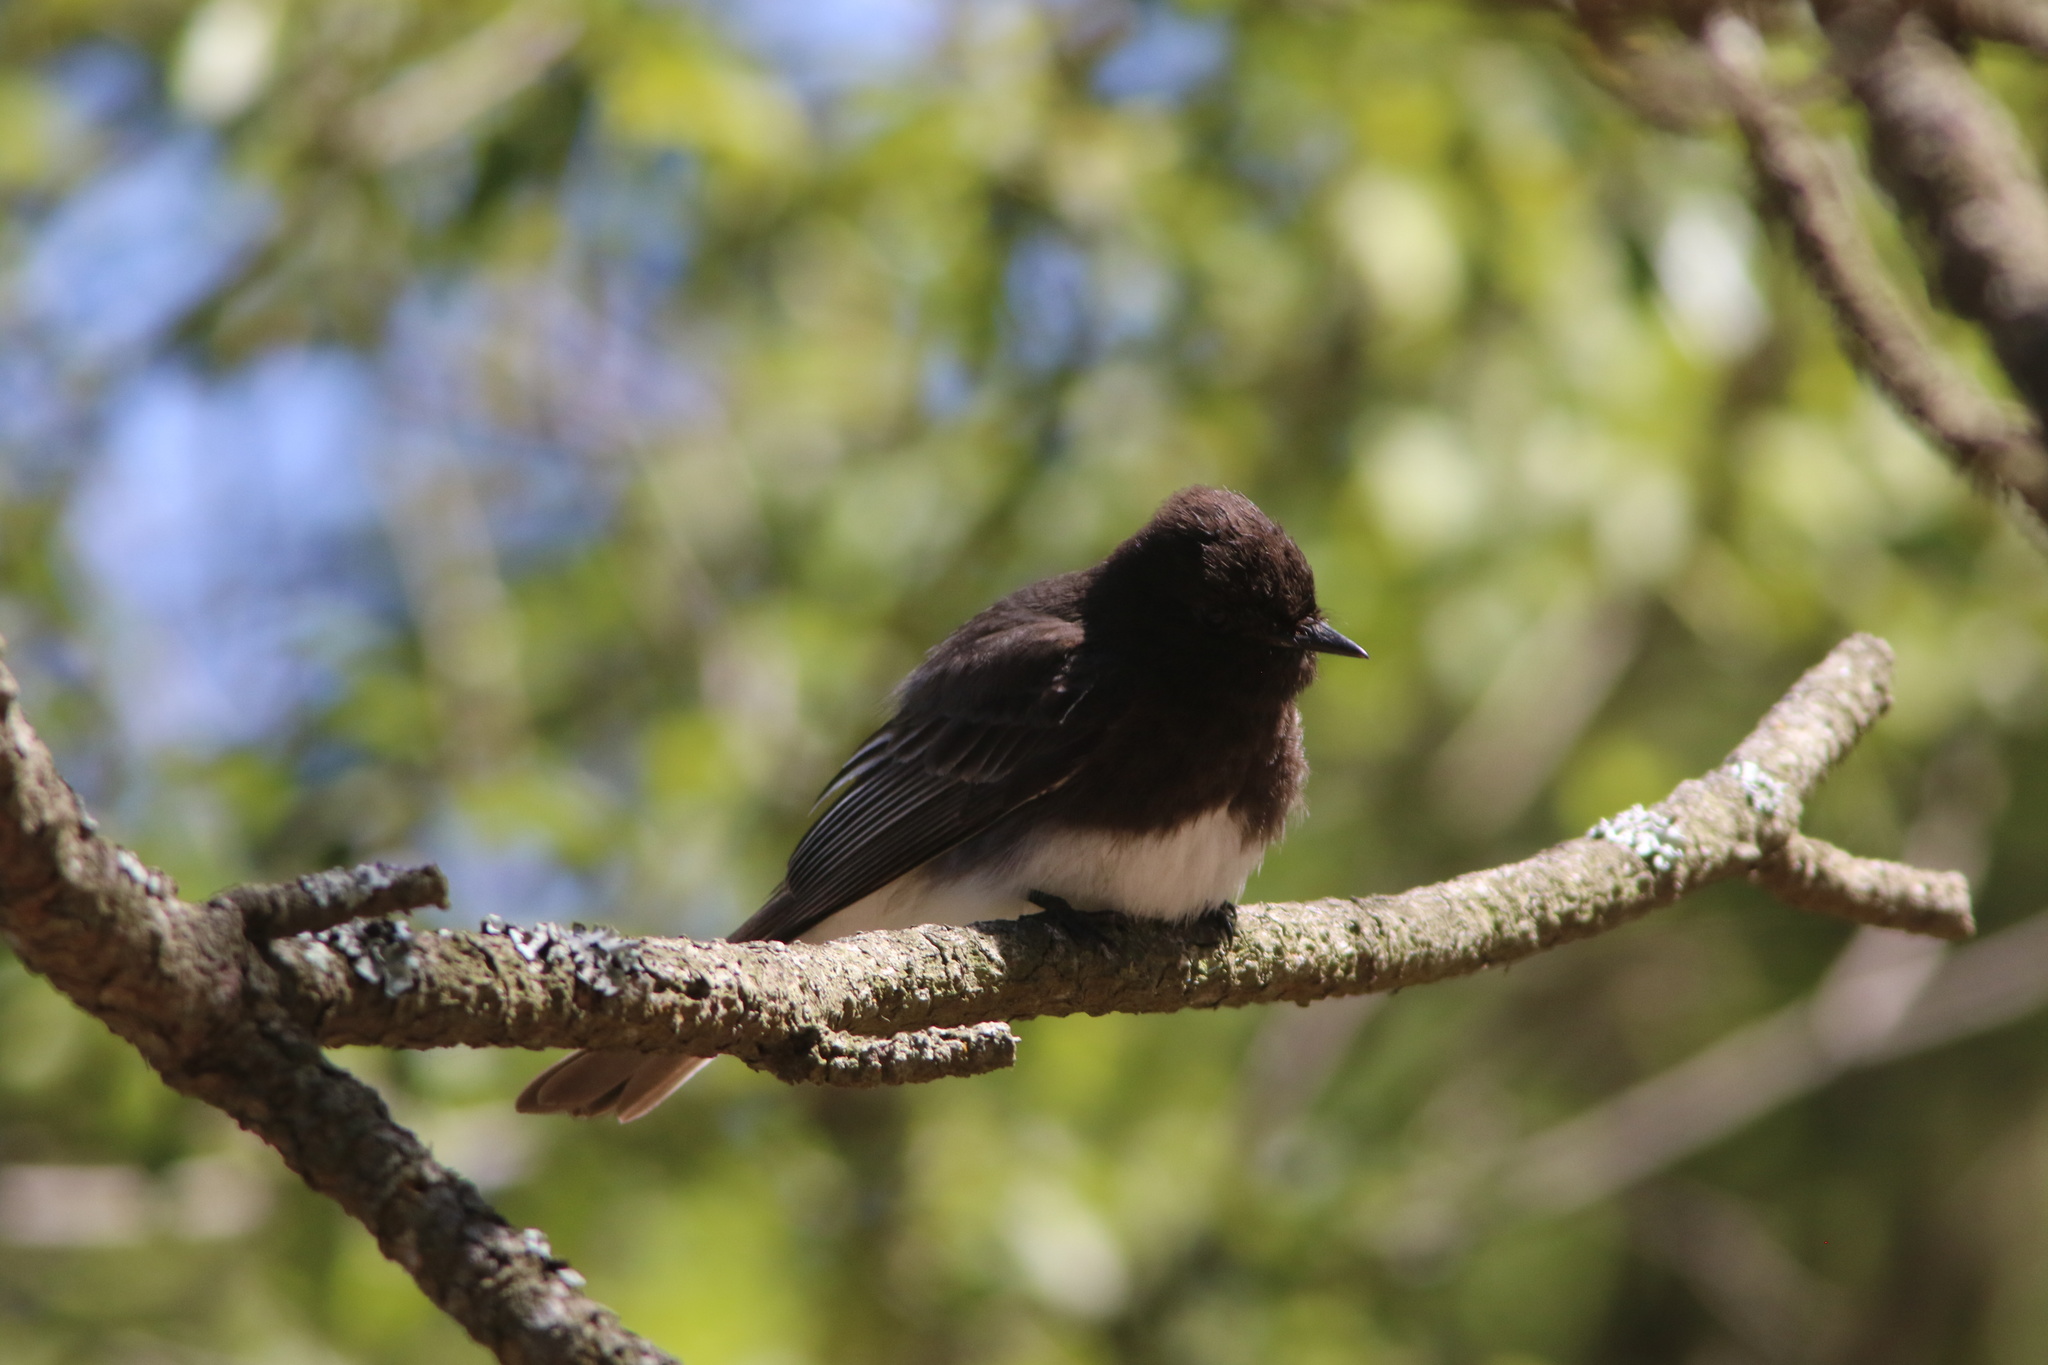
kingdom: Animalia
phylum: Chordata
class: Aves
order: Passeriformes
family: Tyrannidae
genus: Sayornis
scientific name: Sayornis nigricans
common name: Black phoebe
